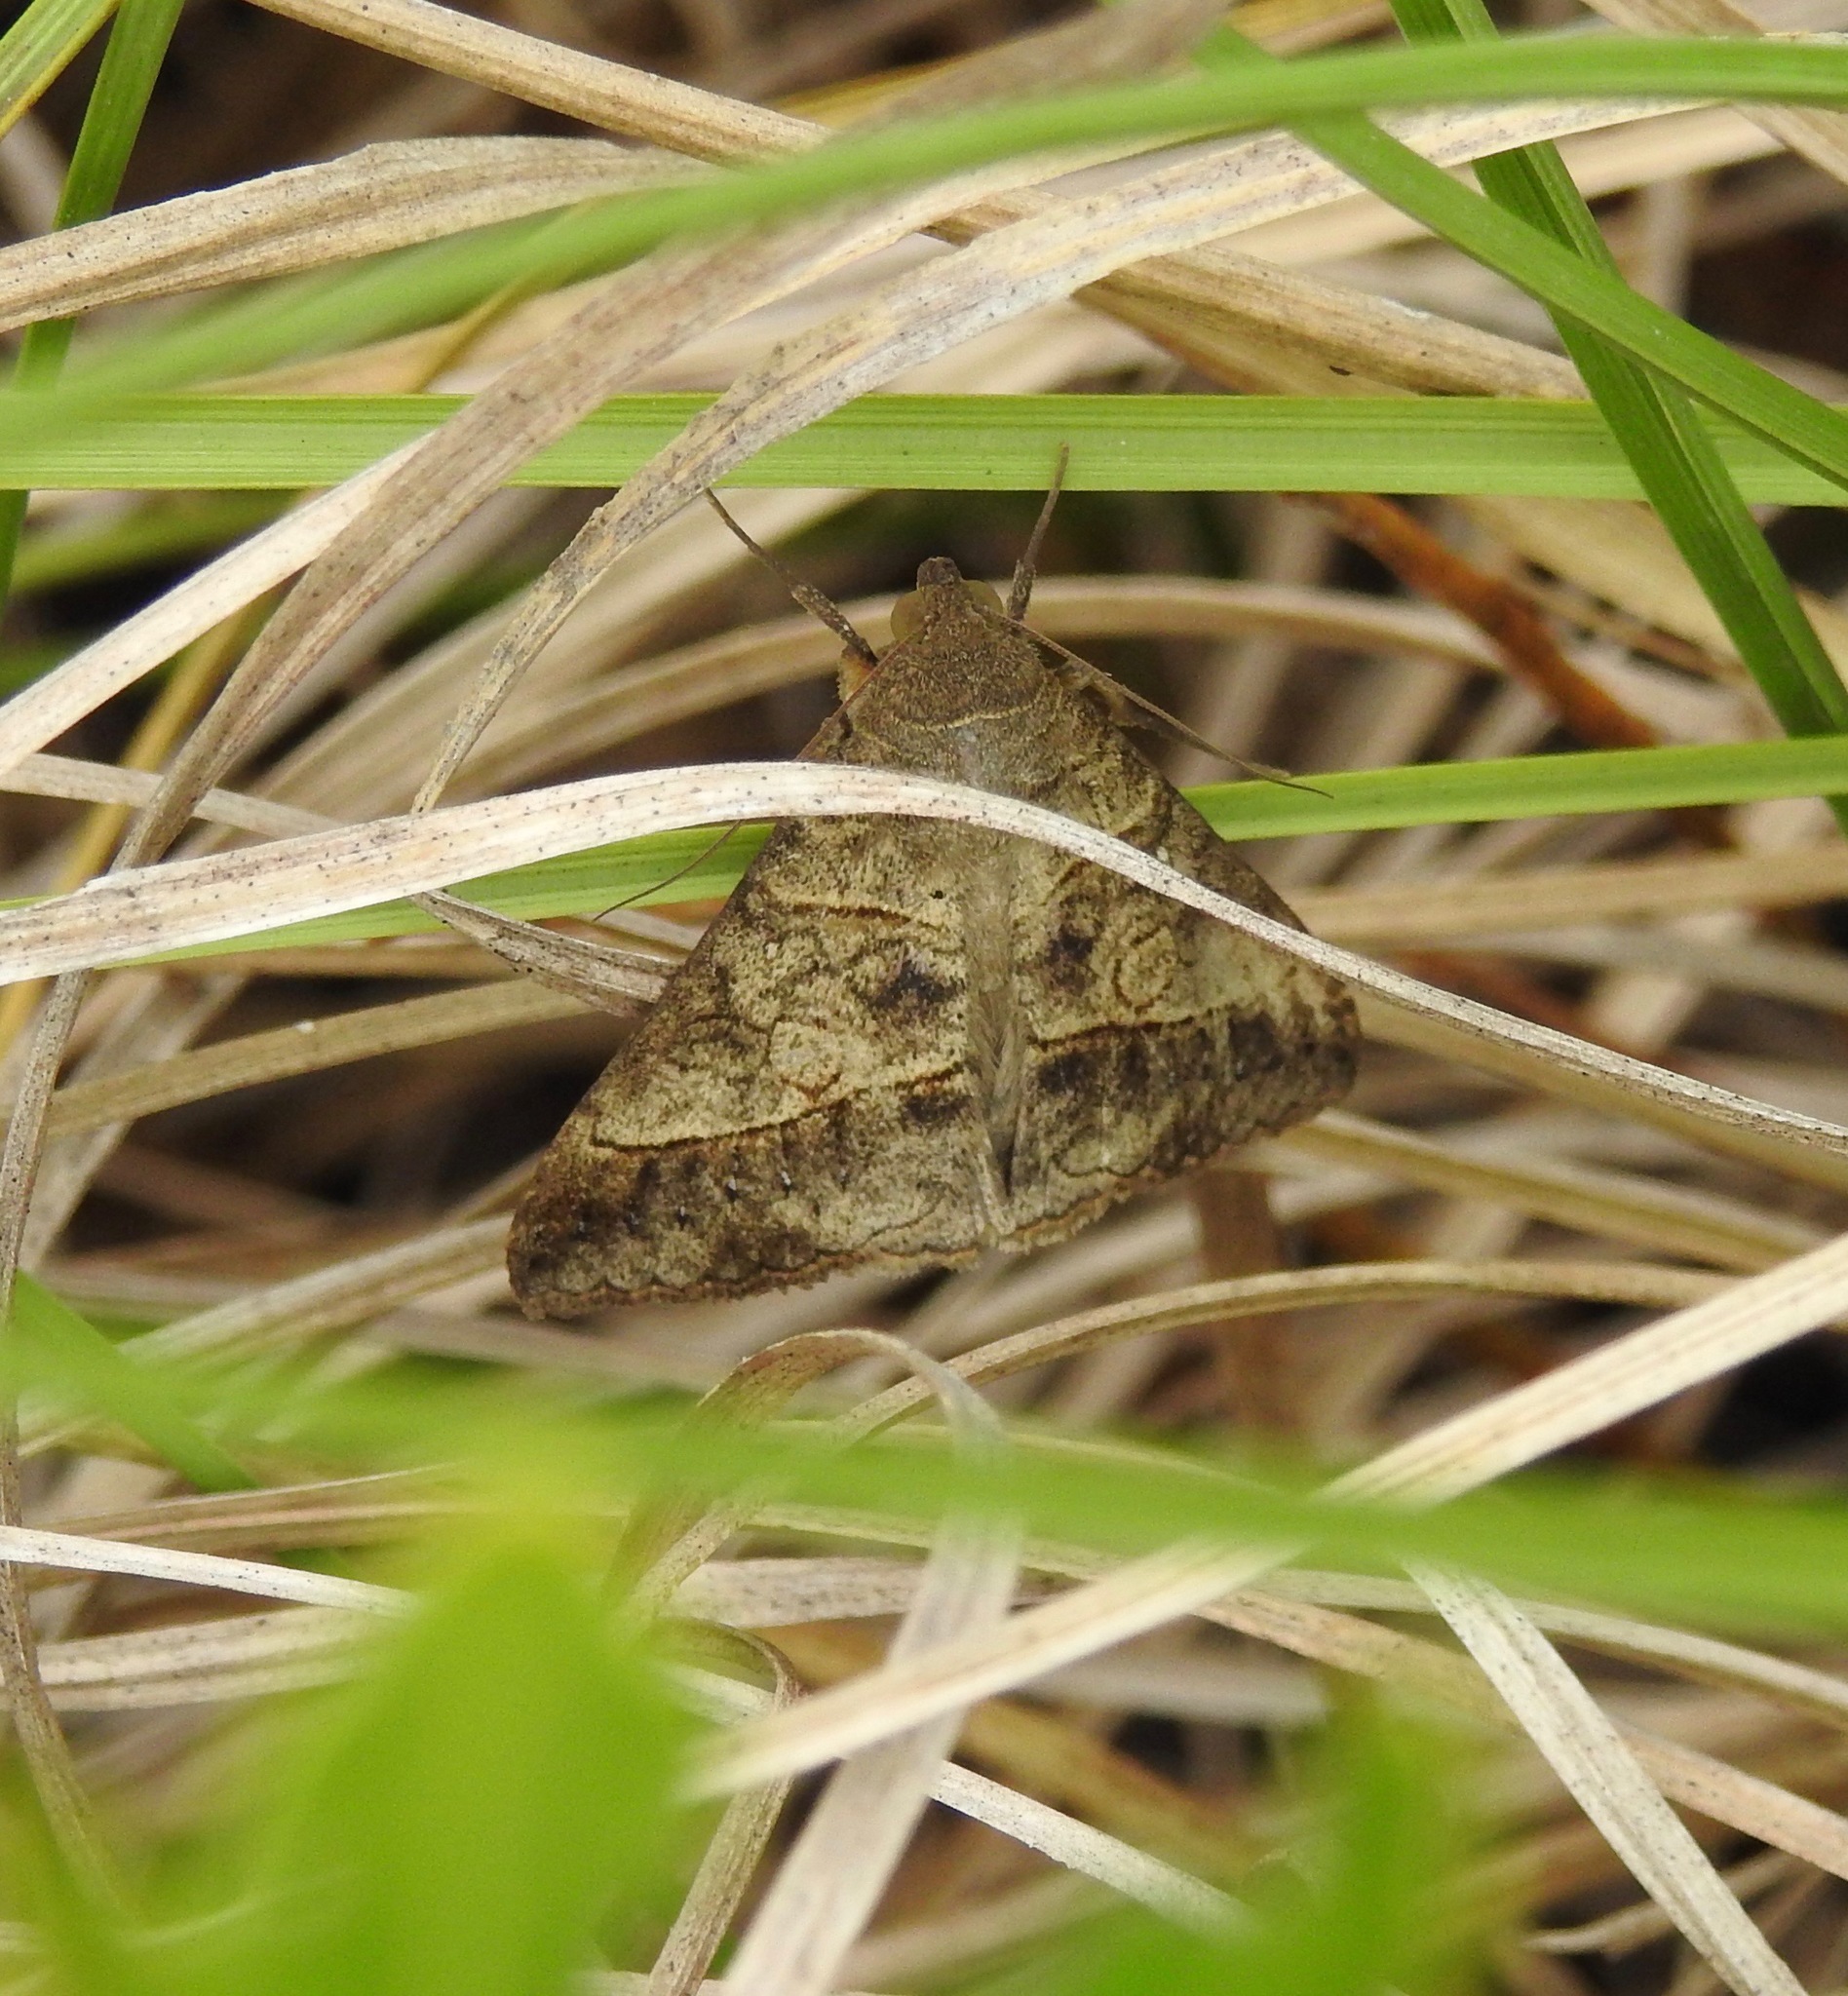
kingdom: Animalia
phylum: Arthropoda
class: Insecta
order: Lepidoptera
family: Erebidae
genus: Mocis
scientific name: Mocis latipes
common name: Striped grass looper
